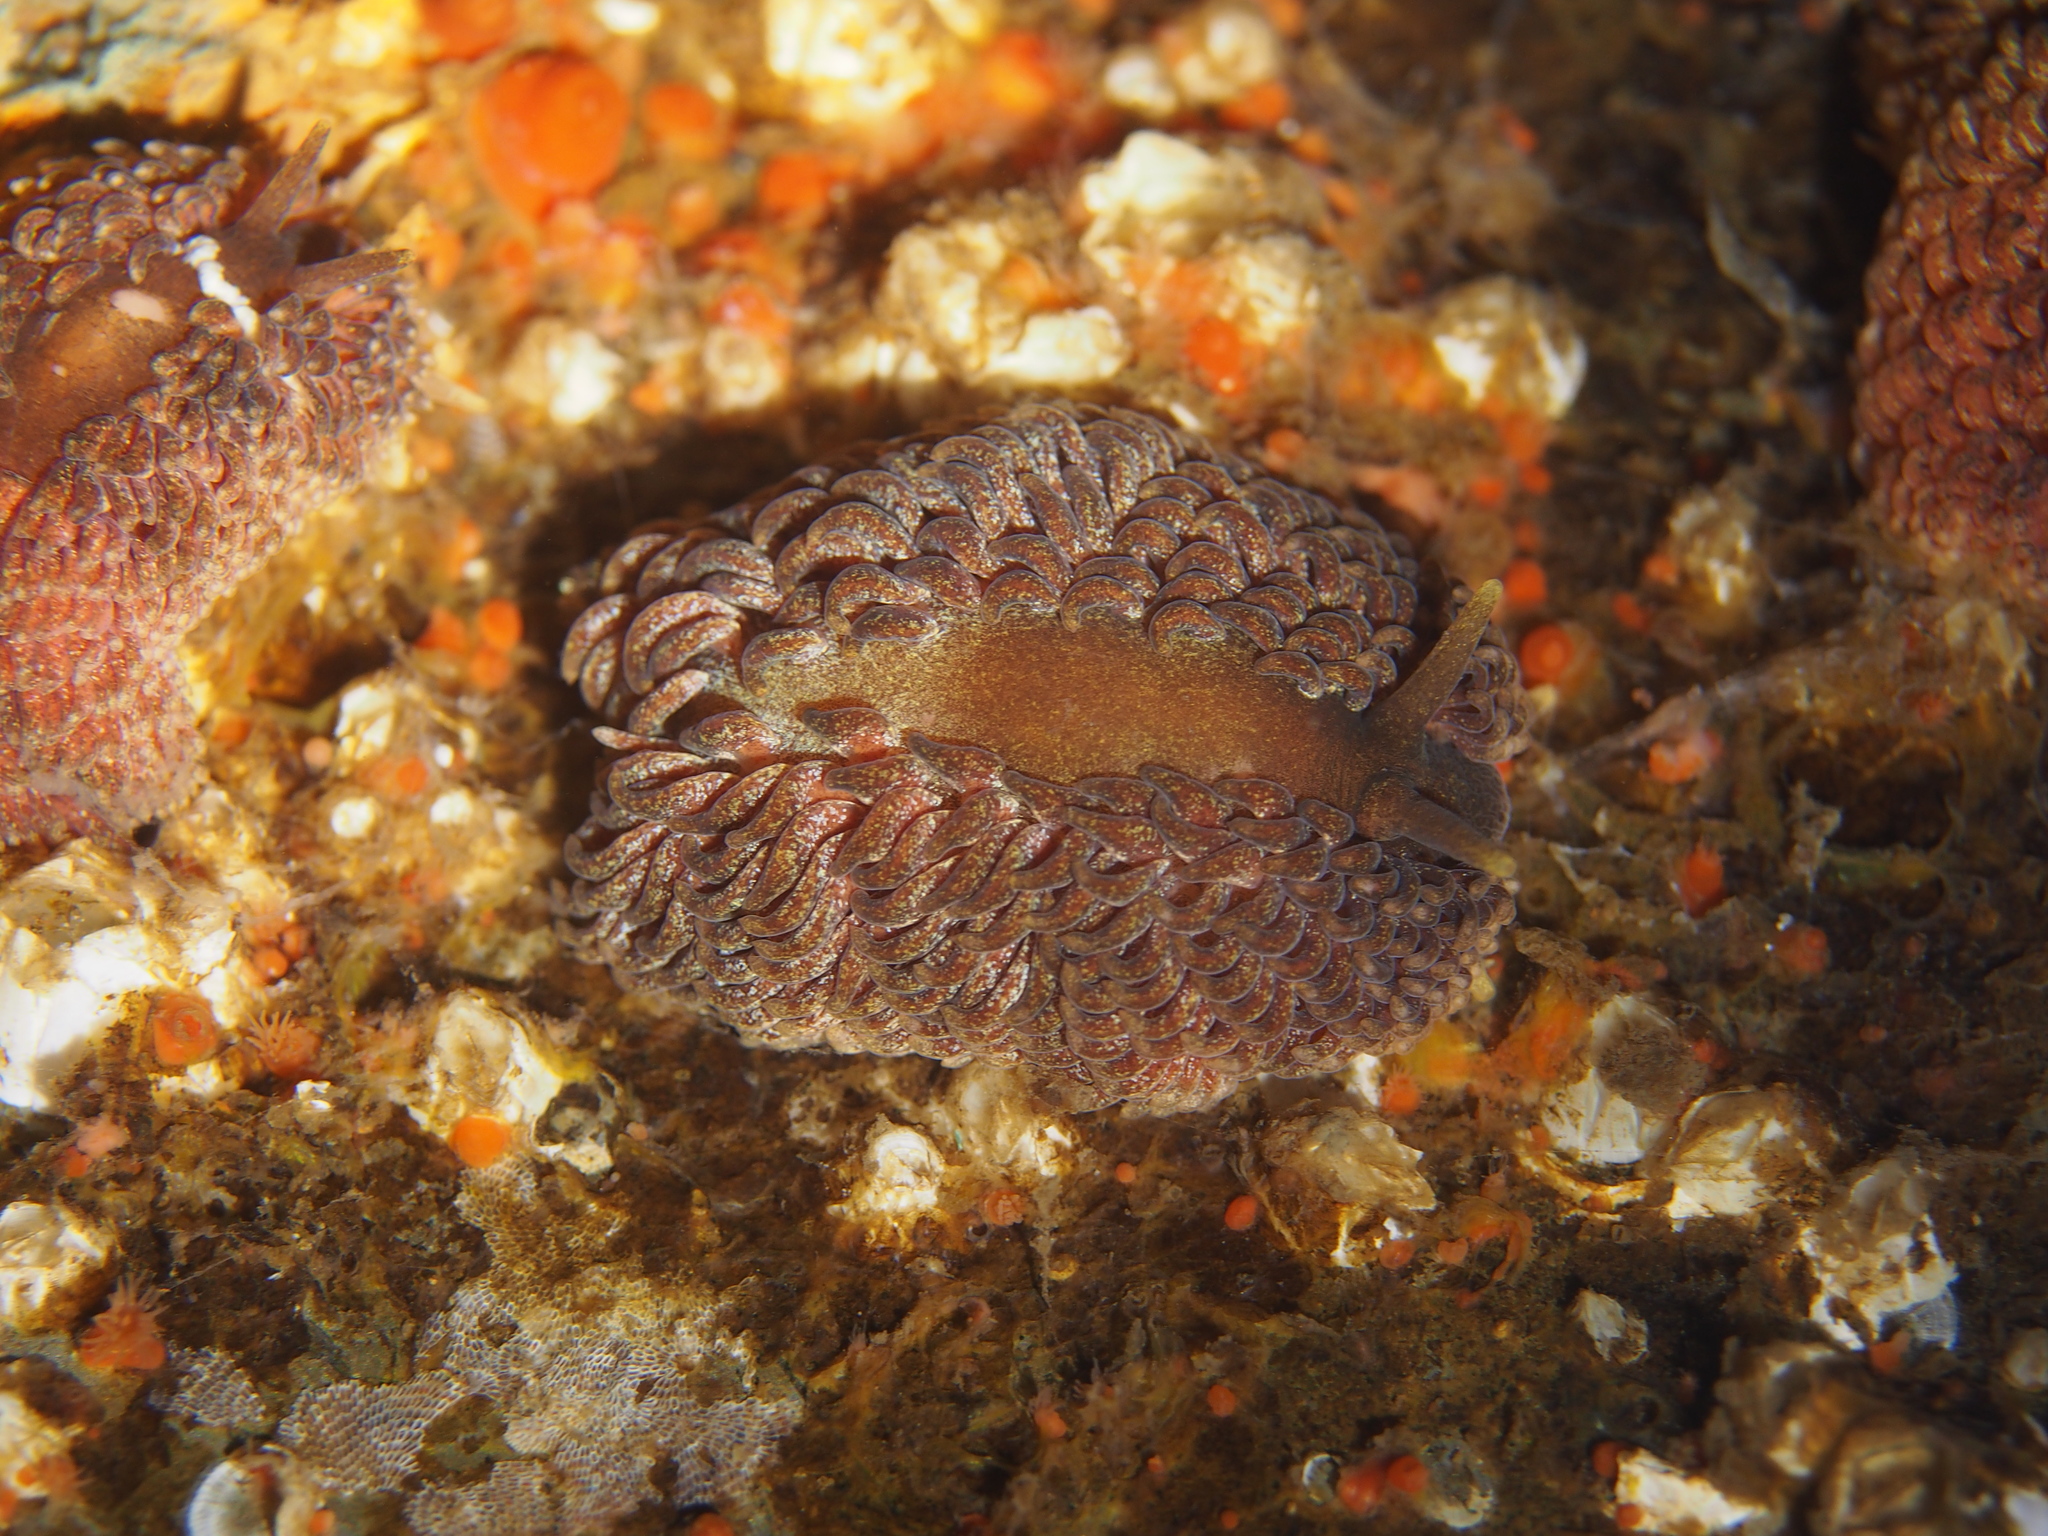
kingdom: Animalia
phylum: Mollusca
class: Gastropoda
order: Nudibranchia
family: Aeolidiidae
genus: Aeolidia
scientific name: Aeolidia papillosa
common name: Common grey sea slug
